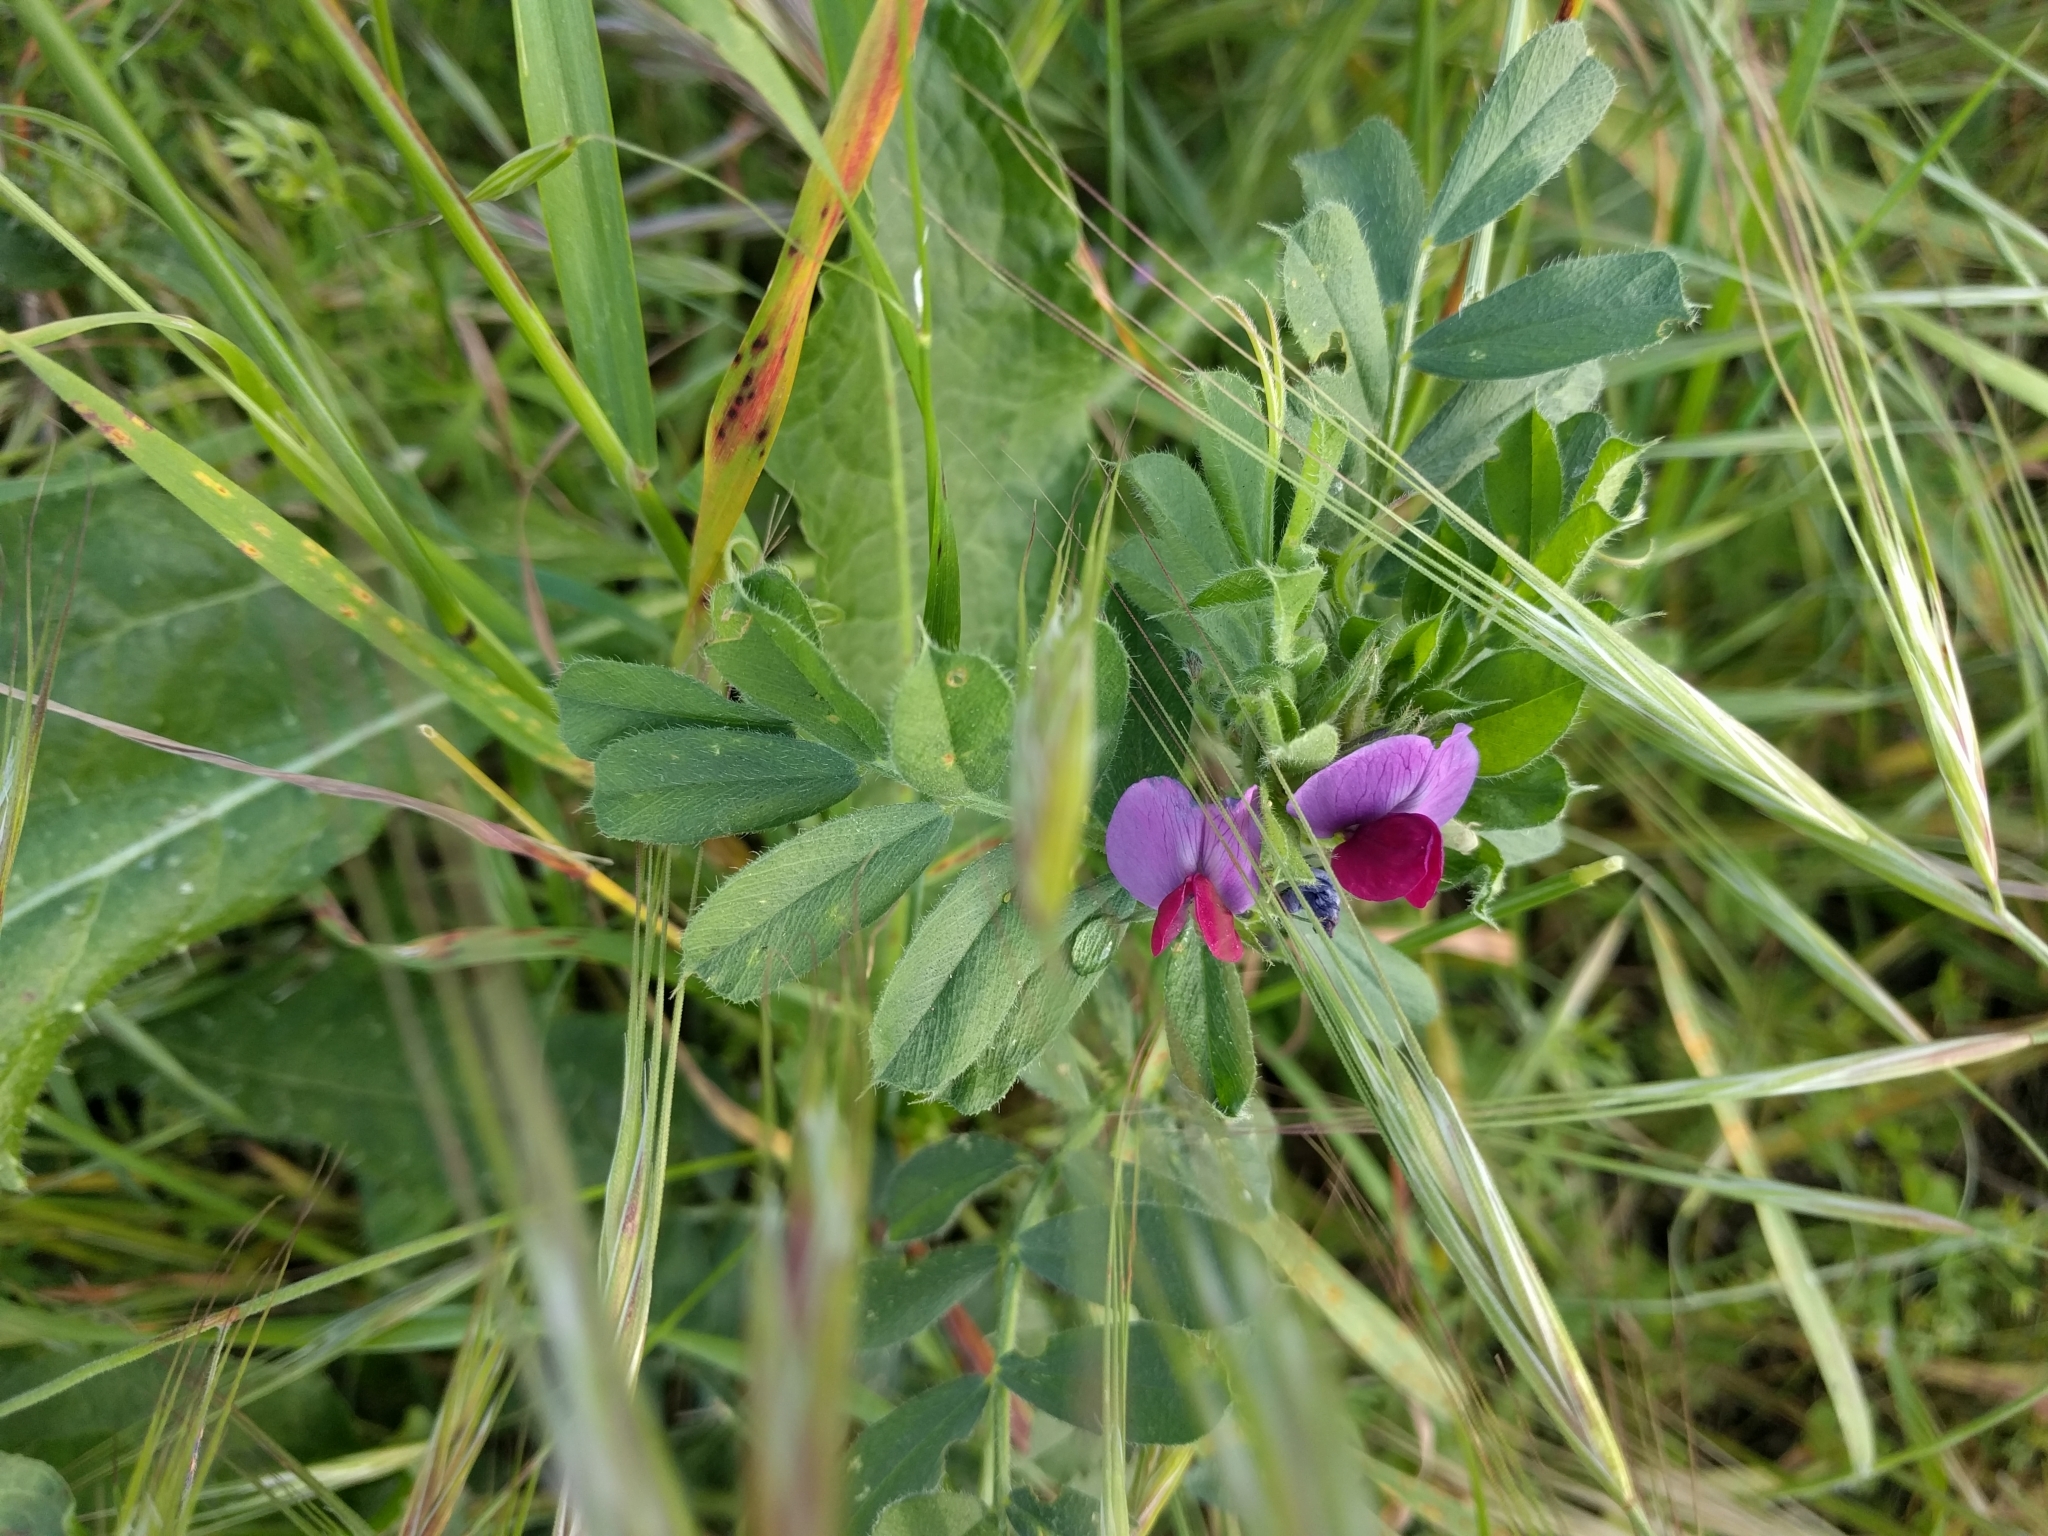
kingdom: Plantae
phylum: Tracheophyta
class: Magnoliopsida
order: Fabales
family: Fabaceae
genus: Vicia
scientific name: Vicia sativa
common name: Garden vetch
